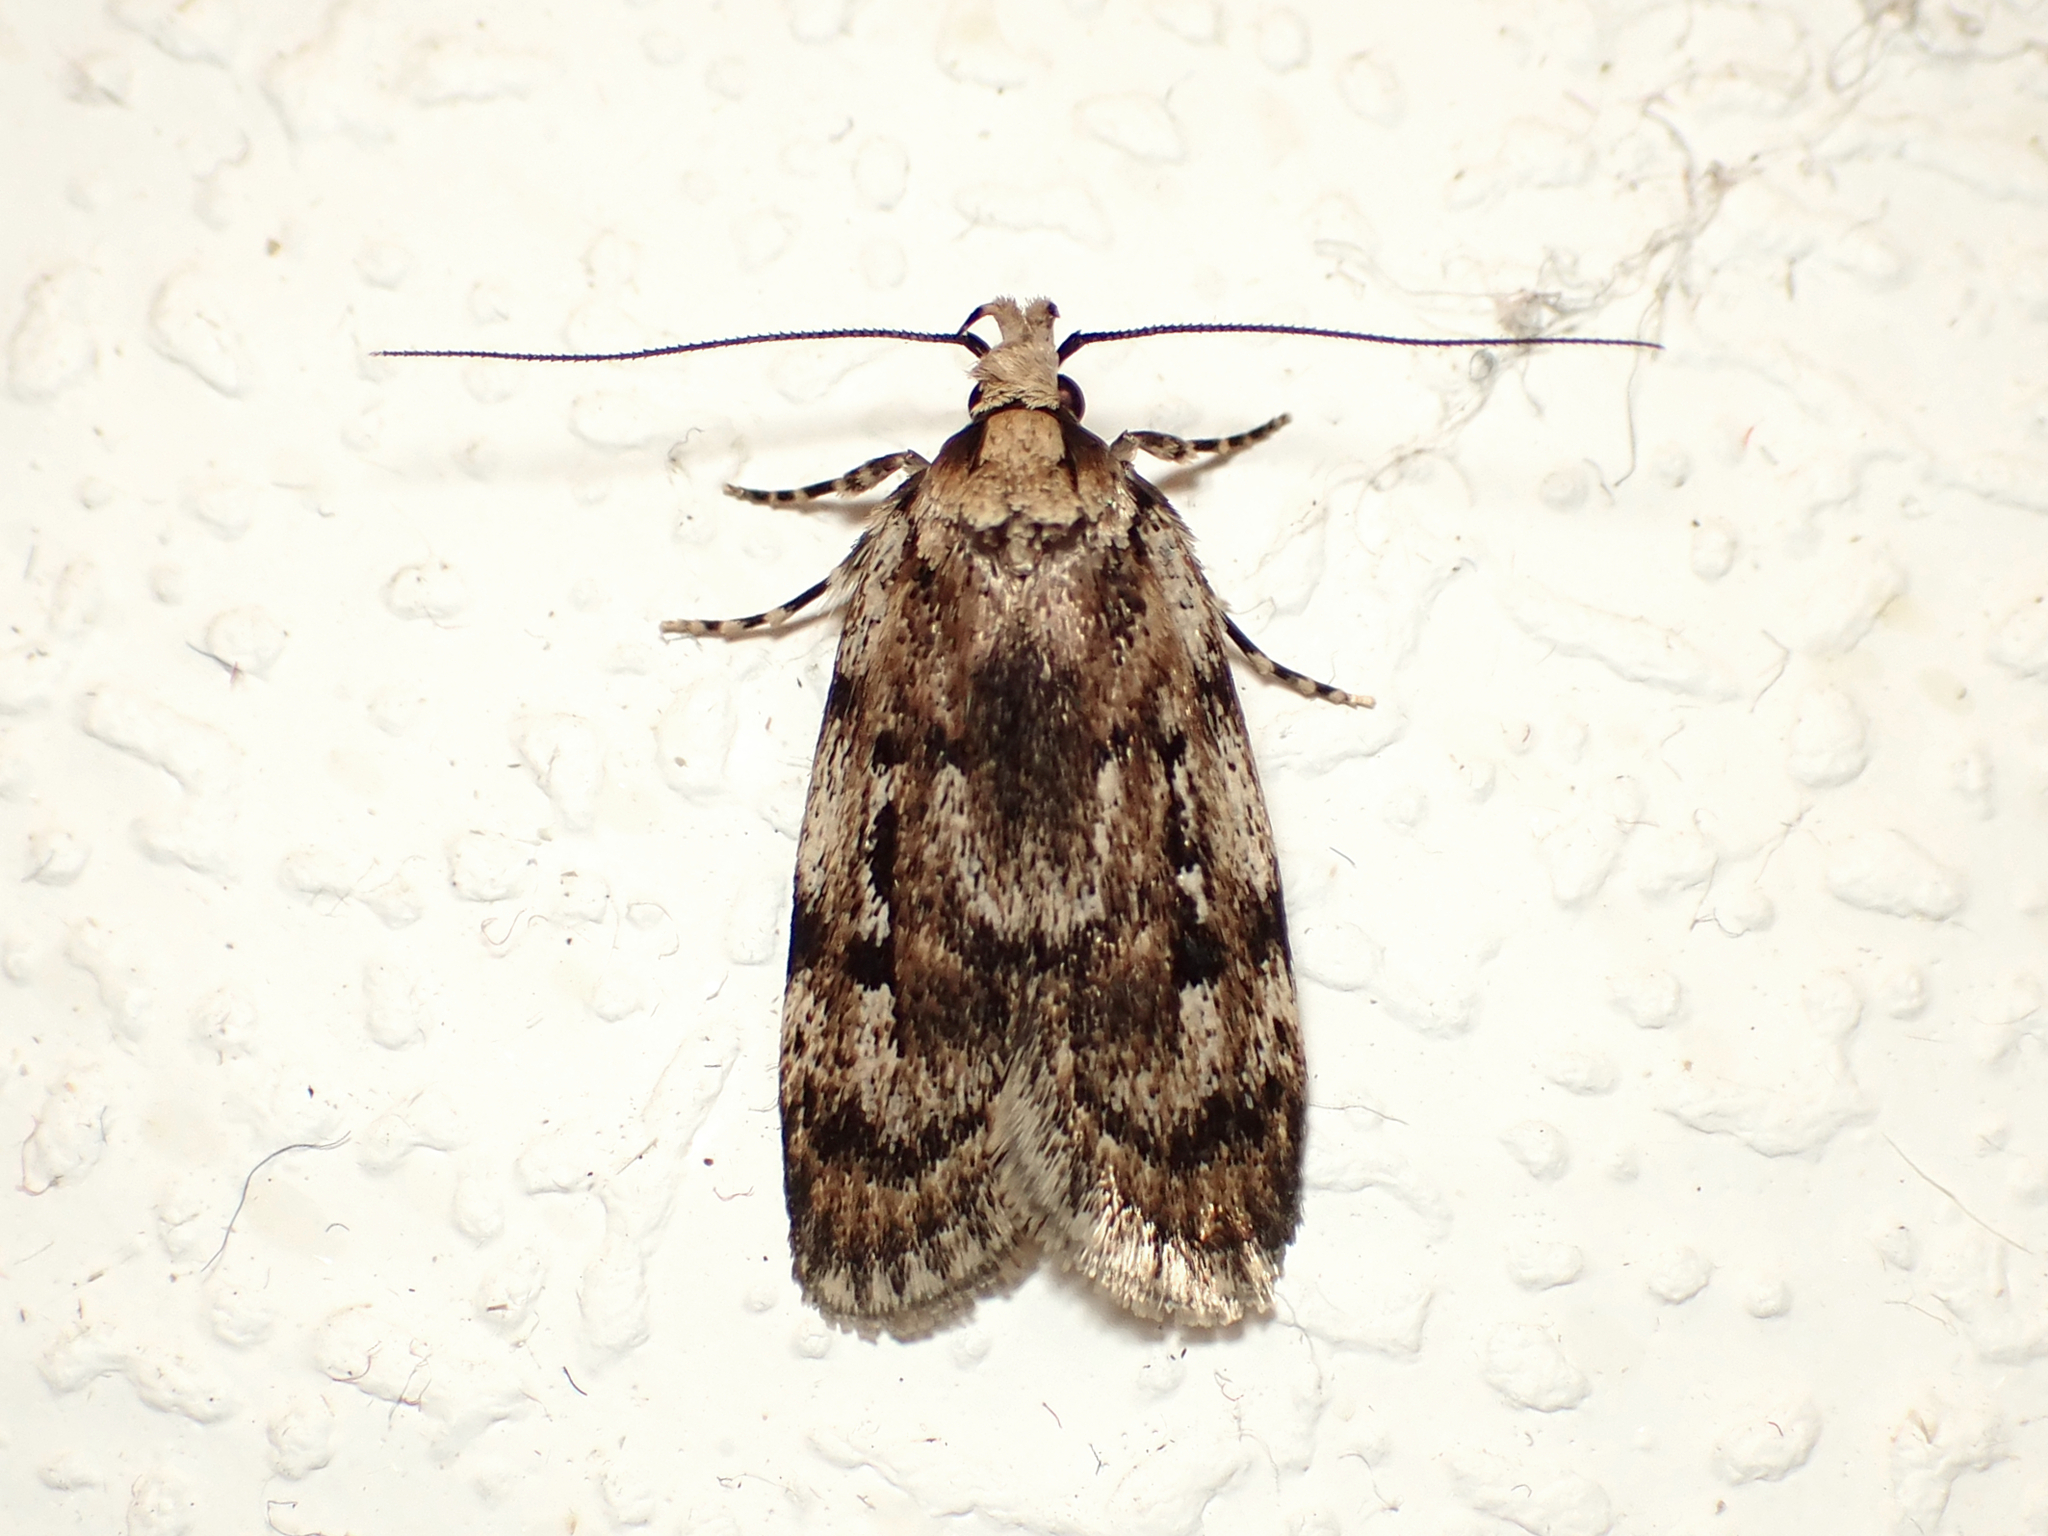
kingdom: Animalia
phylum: Arthropoda
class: Insecta
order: Lepidoptera
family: Oecophoridae
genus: Barea
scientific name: Barea exarcha
